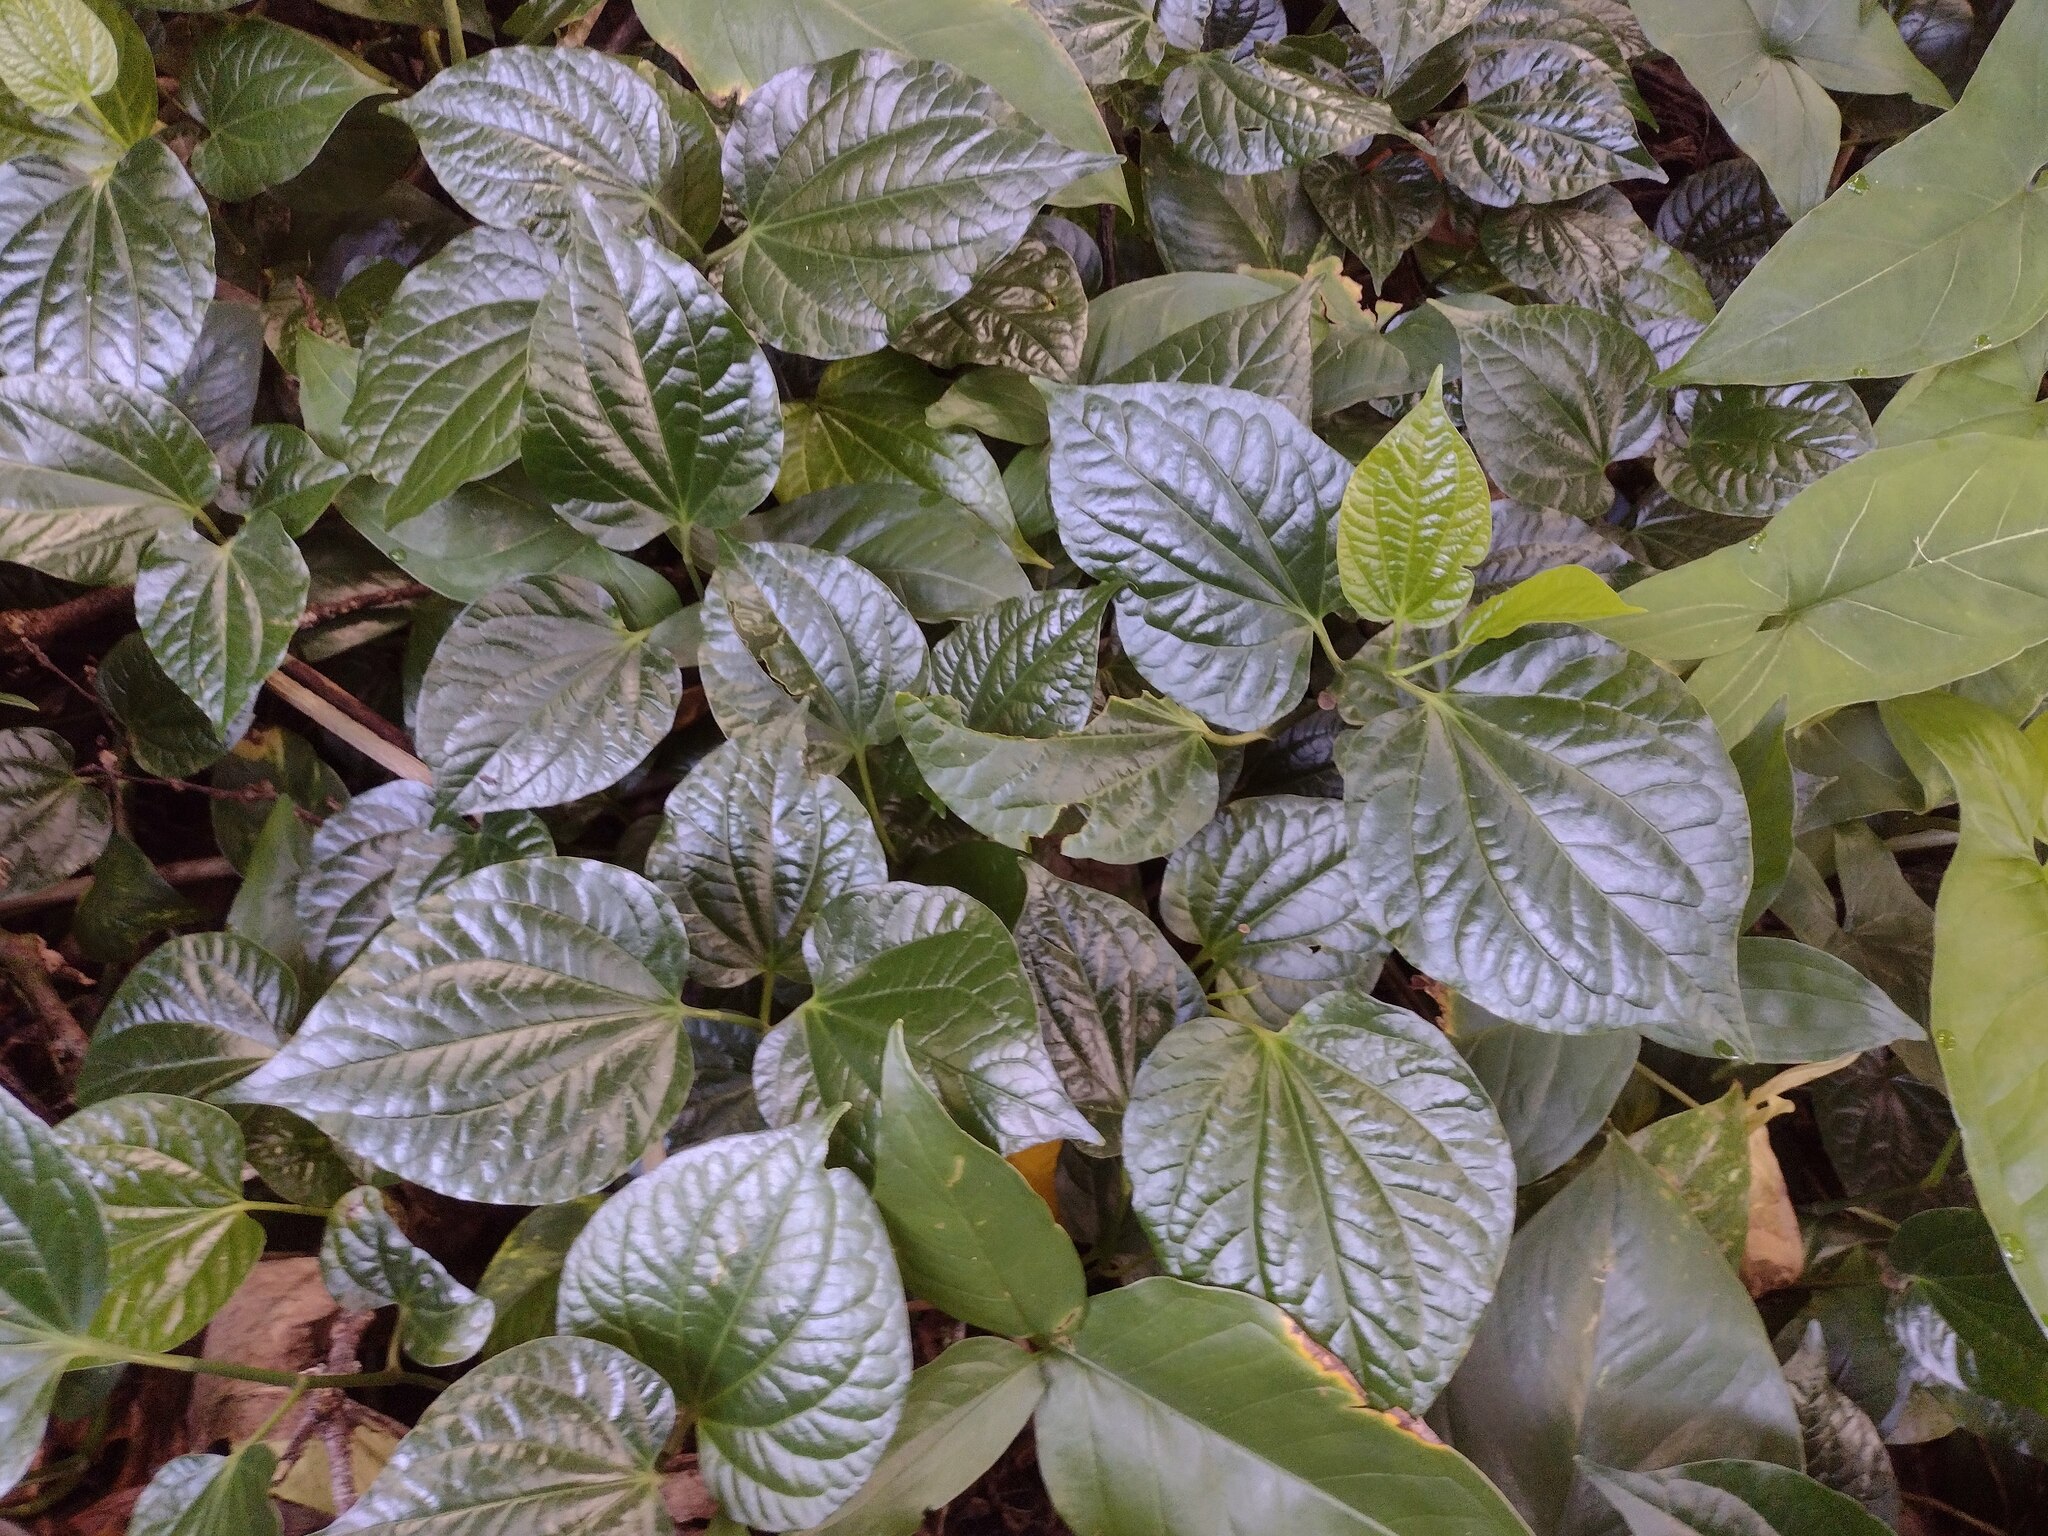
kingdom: Plantae
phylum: Tracheophyta
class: Magnoliopsida
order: Piperales
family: Piperaceae
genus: Piper
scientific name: Piper sarmentosum
